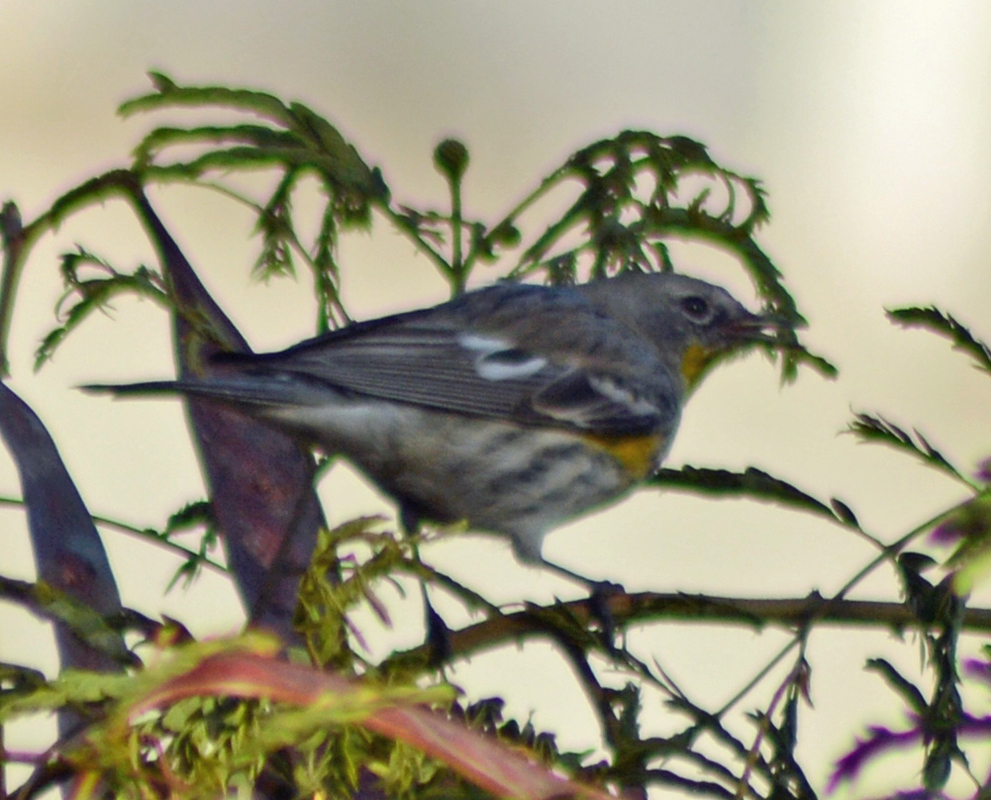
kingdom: Animalia
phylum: Chordata
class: Aves
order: Passeriformes
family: Parulidae
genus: Setophaga
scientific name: Setophaga auduboni
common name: Audubon's warbler
